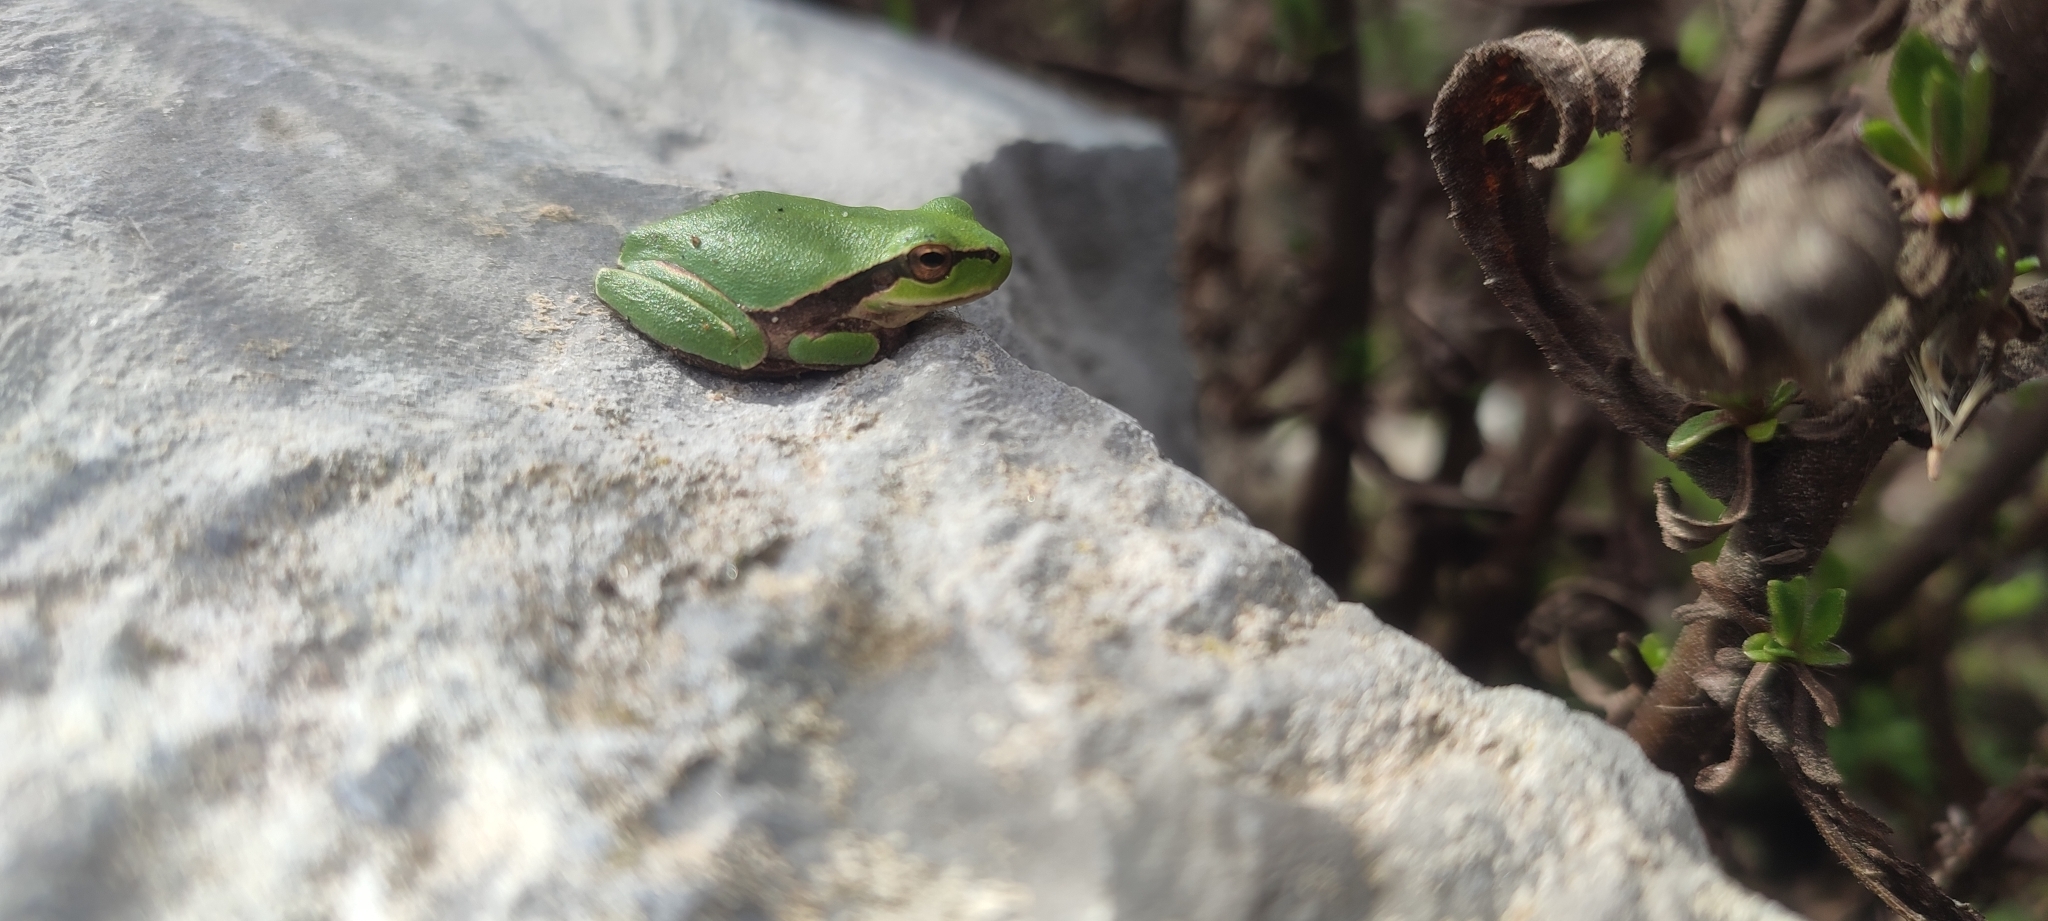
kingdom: Animalia
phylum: Chordata
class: Amphibia
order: Anura
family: Hylidae
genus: Hyla
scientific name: Hyla meridionalis
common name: Stripeless tree frog
